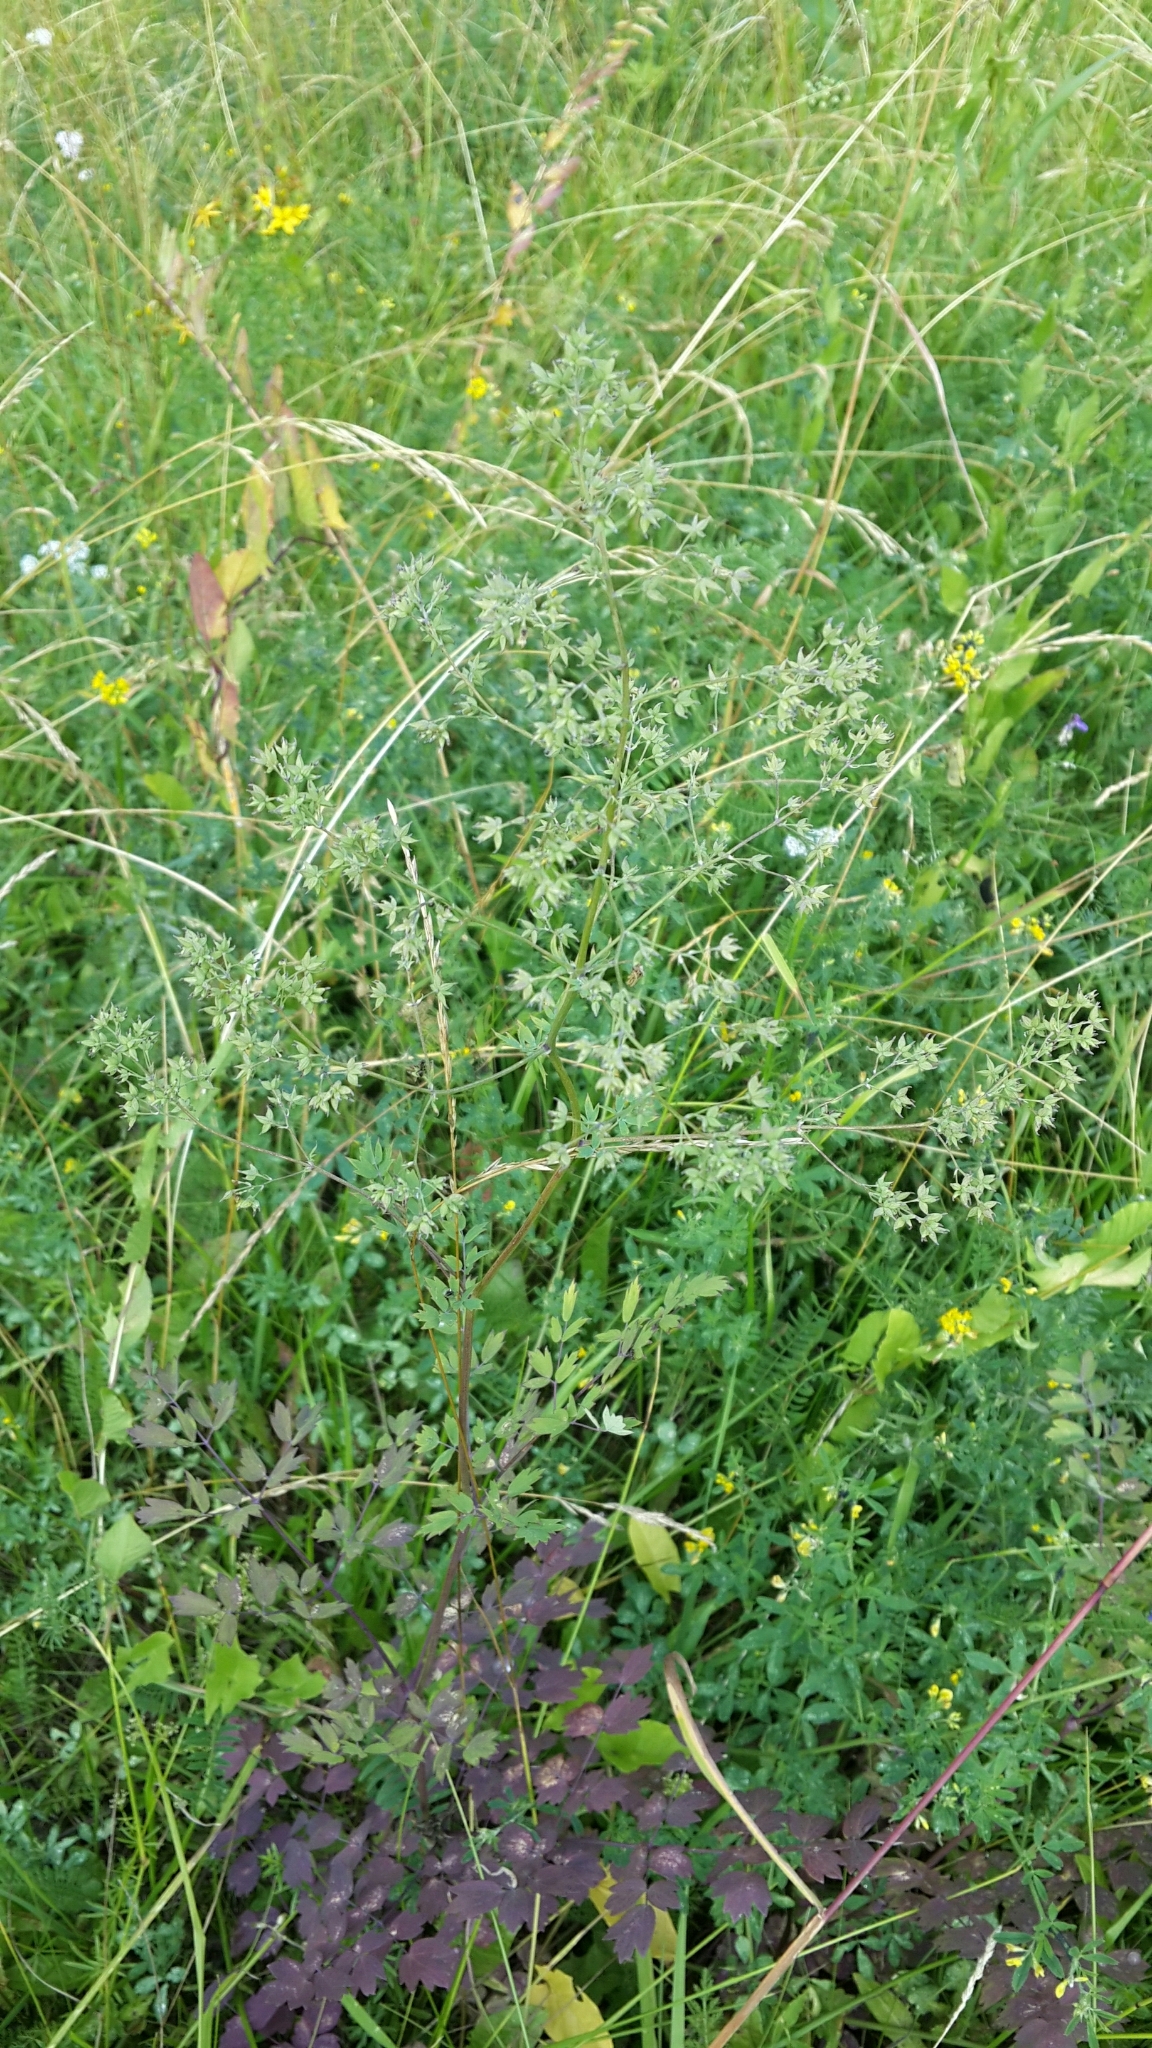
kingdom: Plantae
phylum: Tracheophyta
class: Magnoliopsida
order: Ranunculales
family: Ranunculaceae
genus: Thalictrum
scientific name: Thalictrum minus
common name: Lesser meadow-rue
